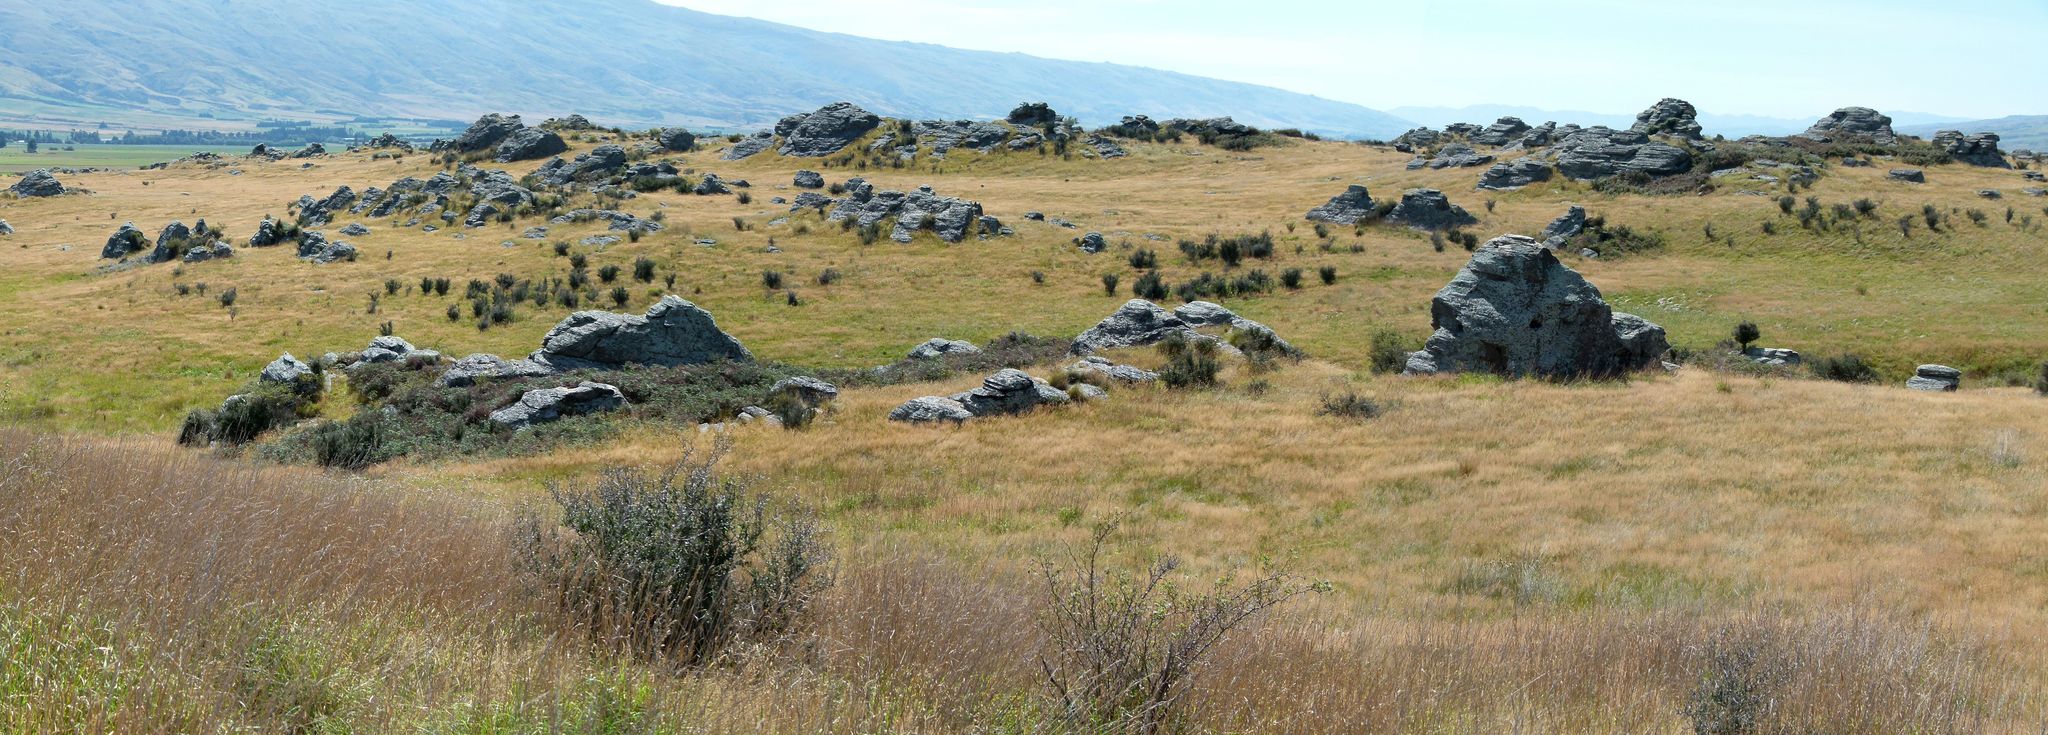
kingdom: Plantae
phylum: Tracheophyta
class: Magnoliopsida
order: Rosales
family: Rhamnaceae
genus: Discaria
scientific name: Discaria toumatou
